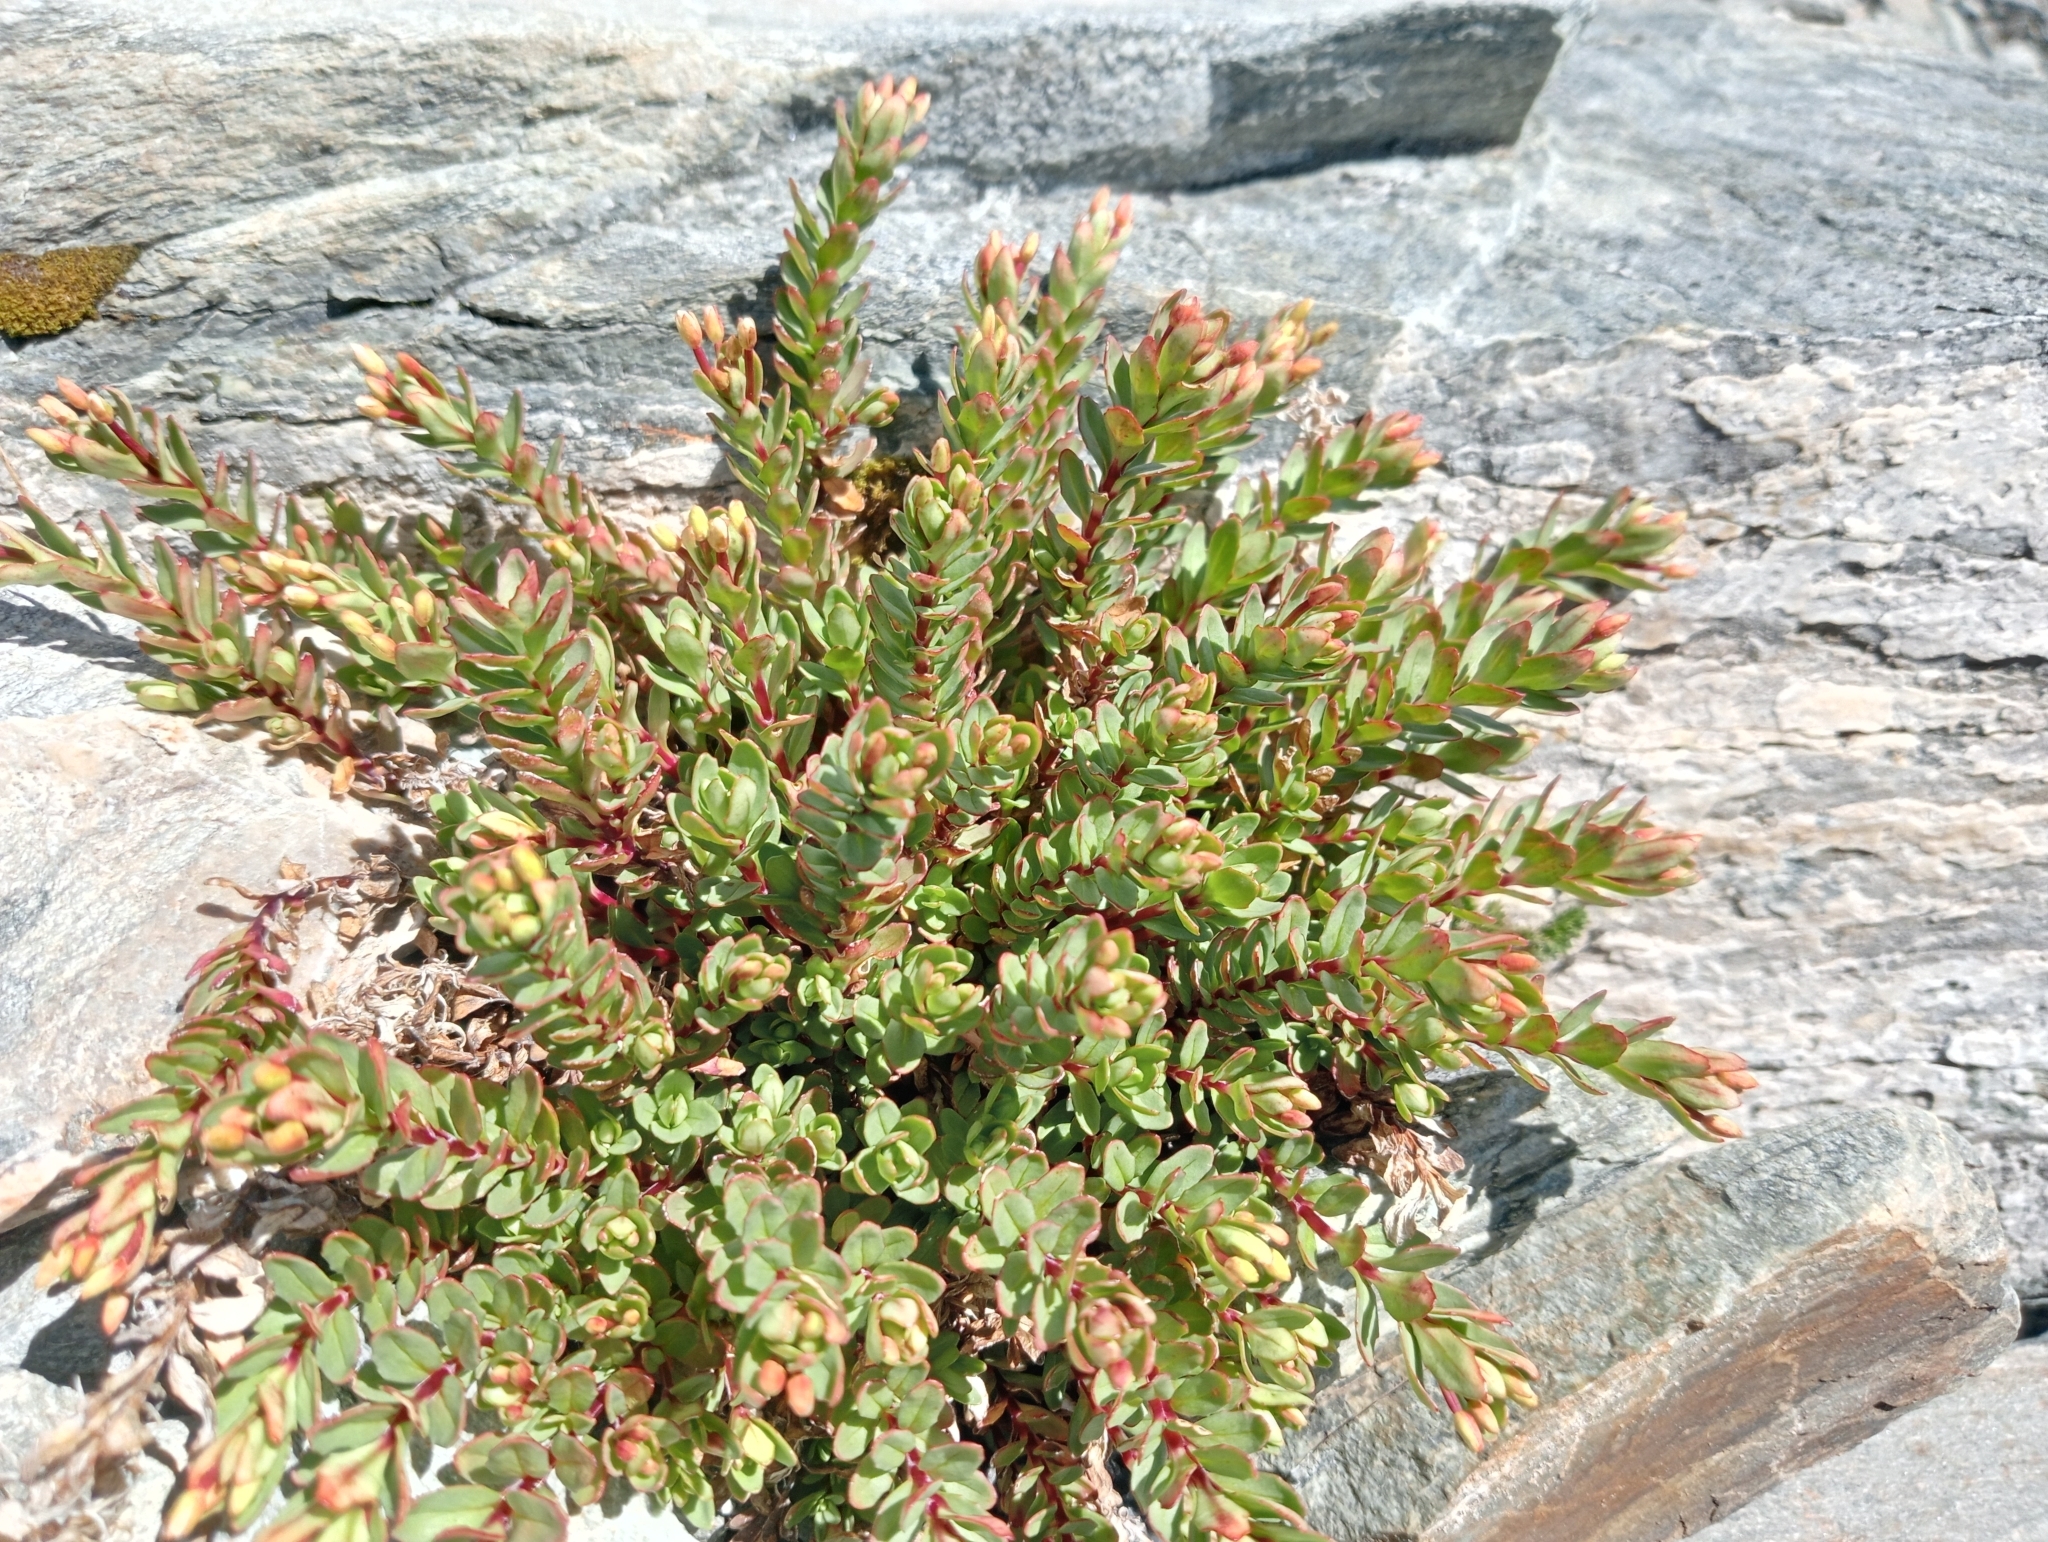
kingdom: Plantae
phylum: Tracheophyta
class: Magnoliopsida
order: Myrtales
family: Onagraceae
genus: Epilobium
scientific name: Epilobium glabellum
